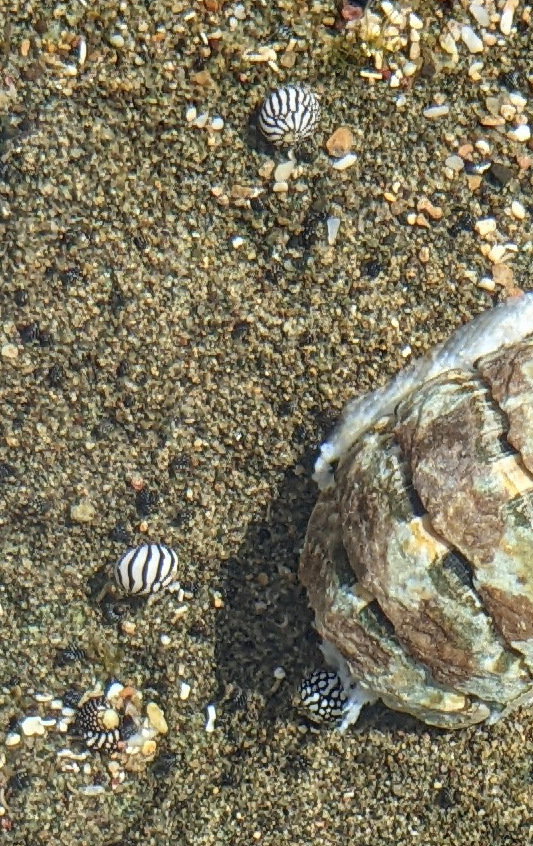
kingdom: Animalia
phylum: Mollusca
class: Gastropoda
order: Cycloneritida
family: Neritidae
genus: Puperita
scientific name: Puperita pupa
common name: Zebra nerite
